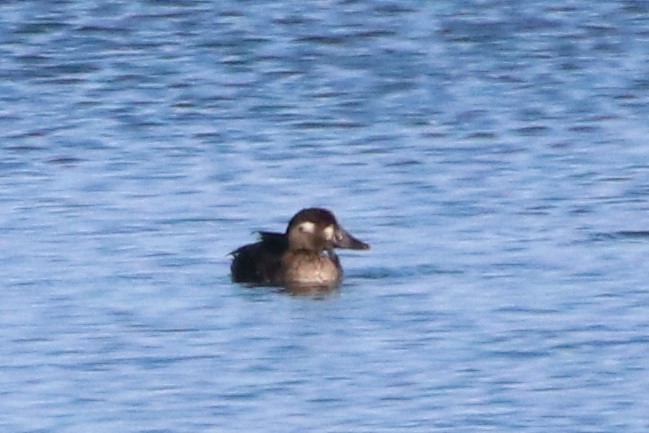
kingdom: Animalia
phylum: Chordata
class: Aves
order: Anseriformes
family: Anatidae
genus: Melanitta
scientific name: Melanitta perspicillata
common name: Surf scoter
